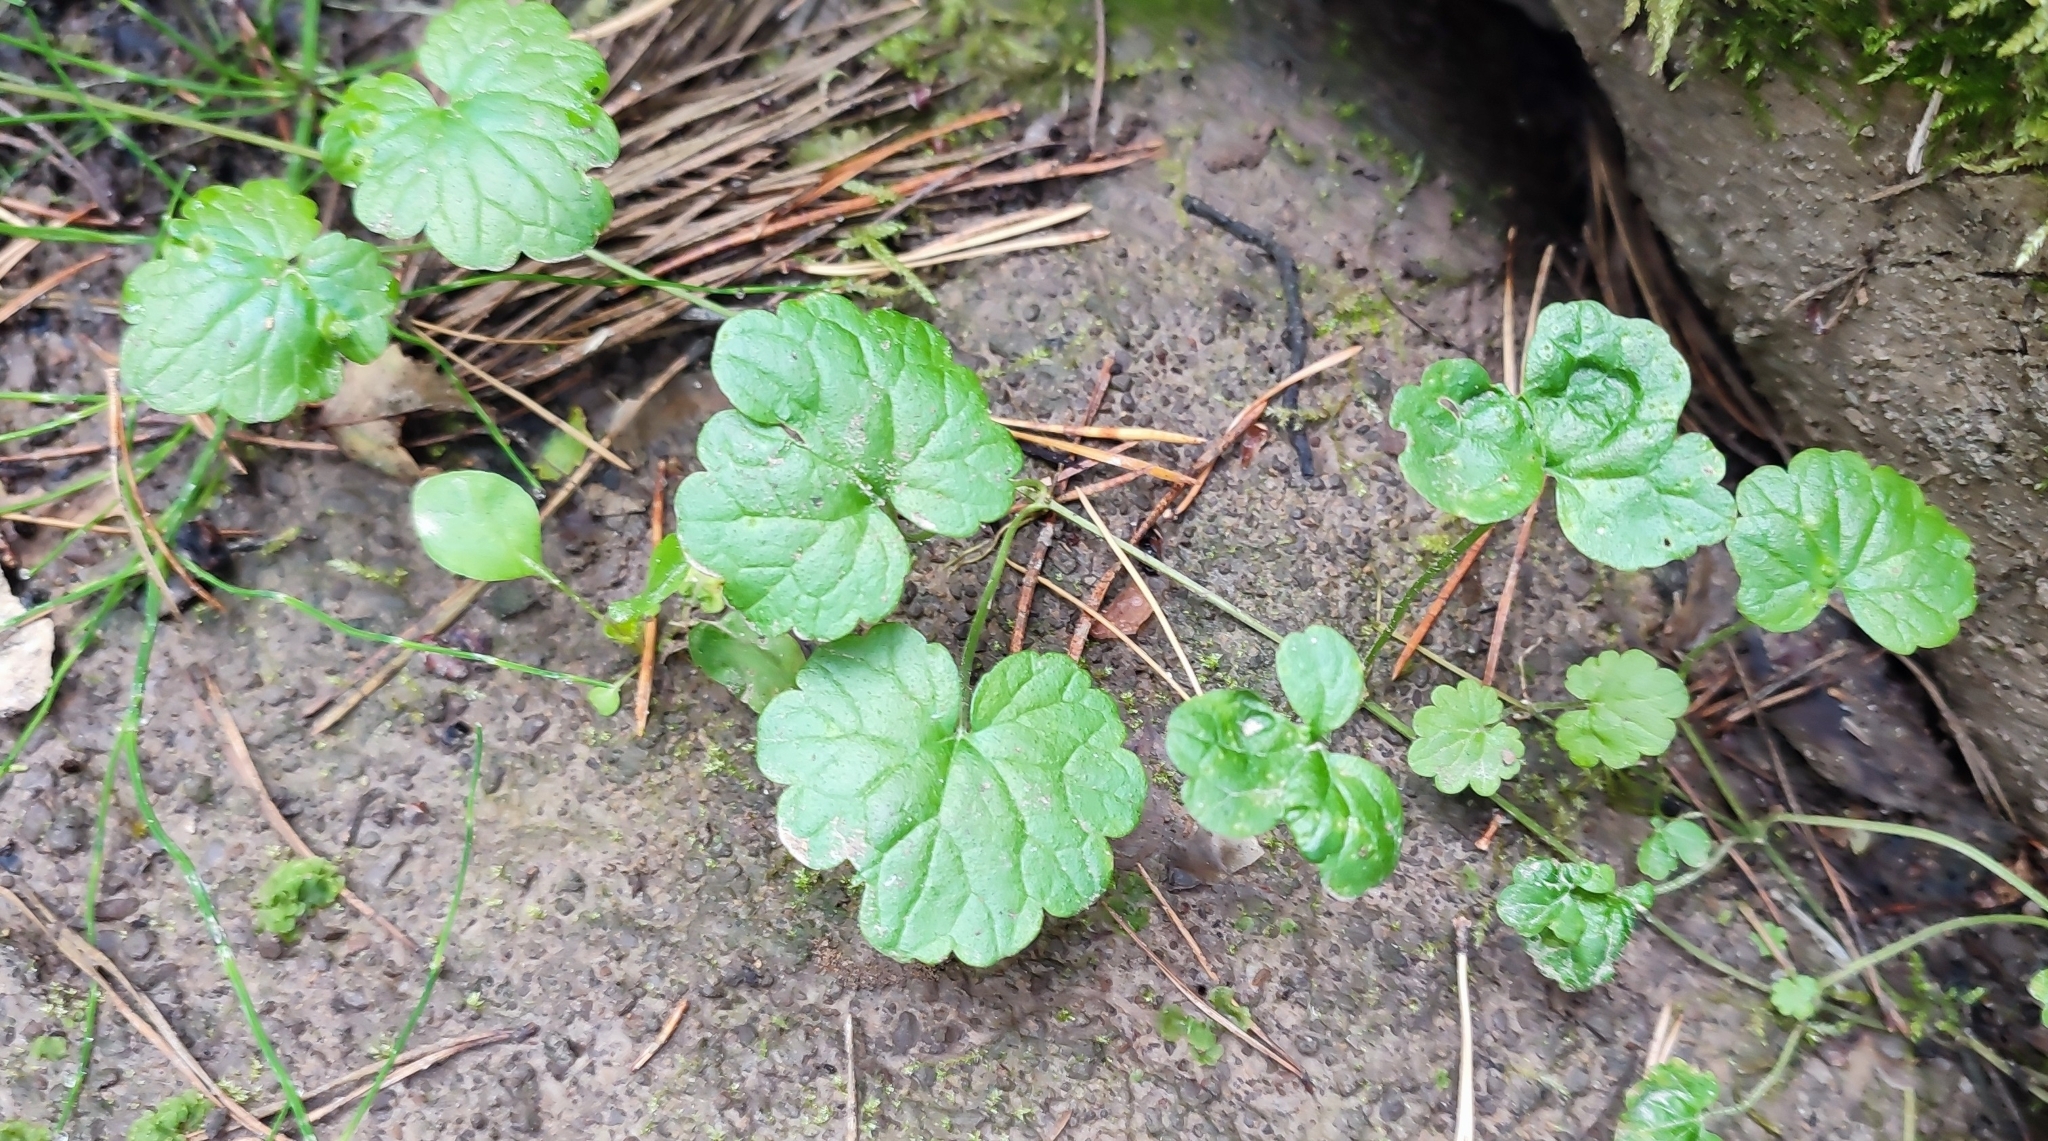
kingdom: Plantae
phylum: Tracheophyta
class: Magnoliopsida
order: Lamiales
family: Lamiaceae
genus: Glechoma
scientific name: Glechoma hederacea
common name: Ground ivy
